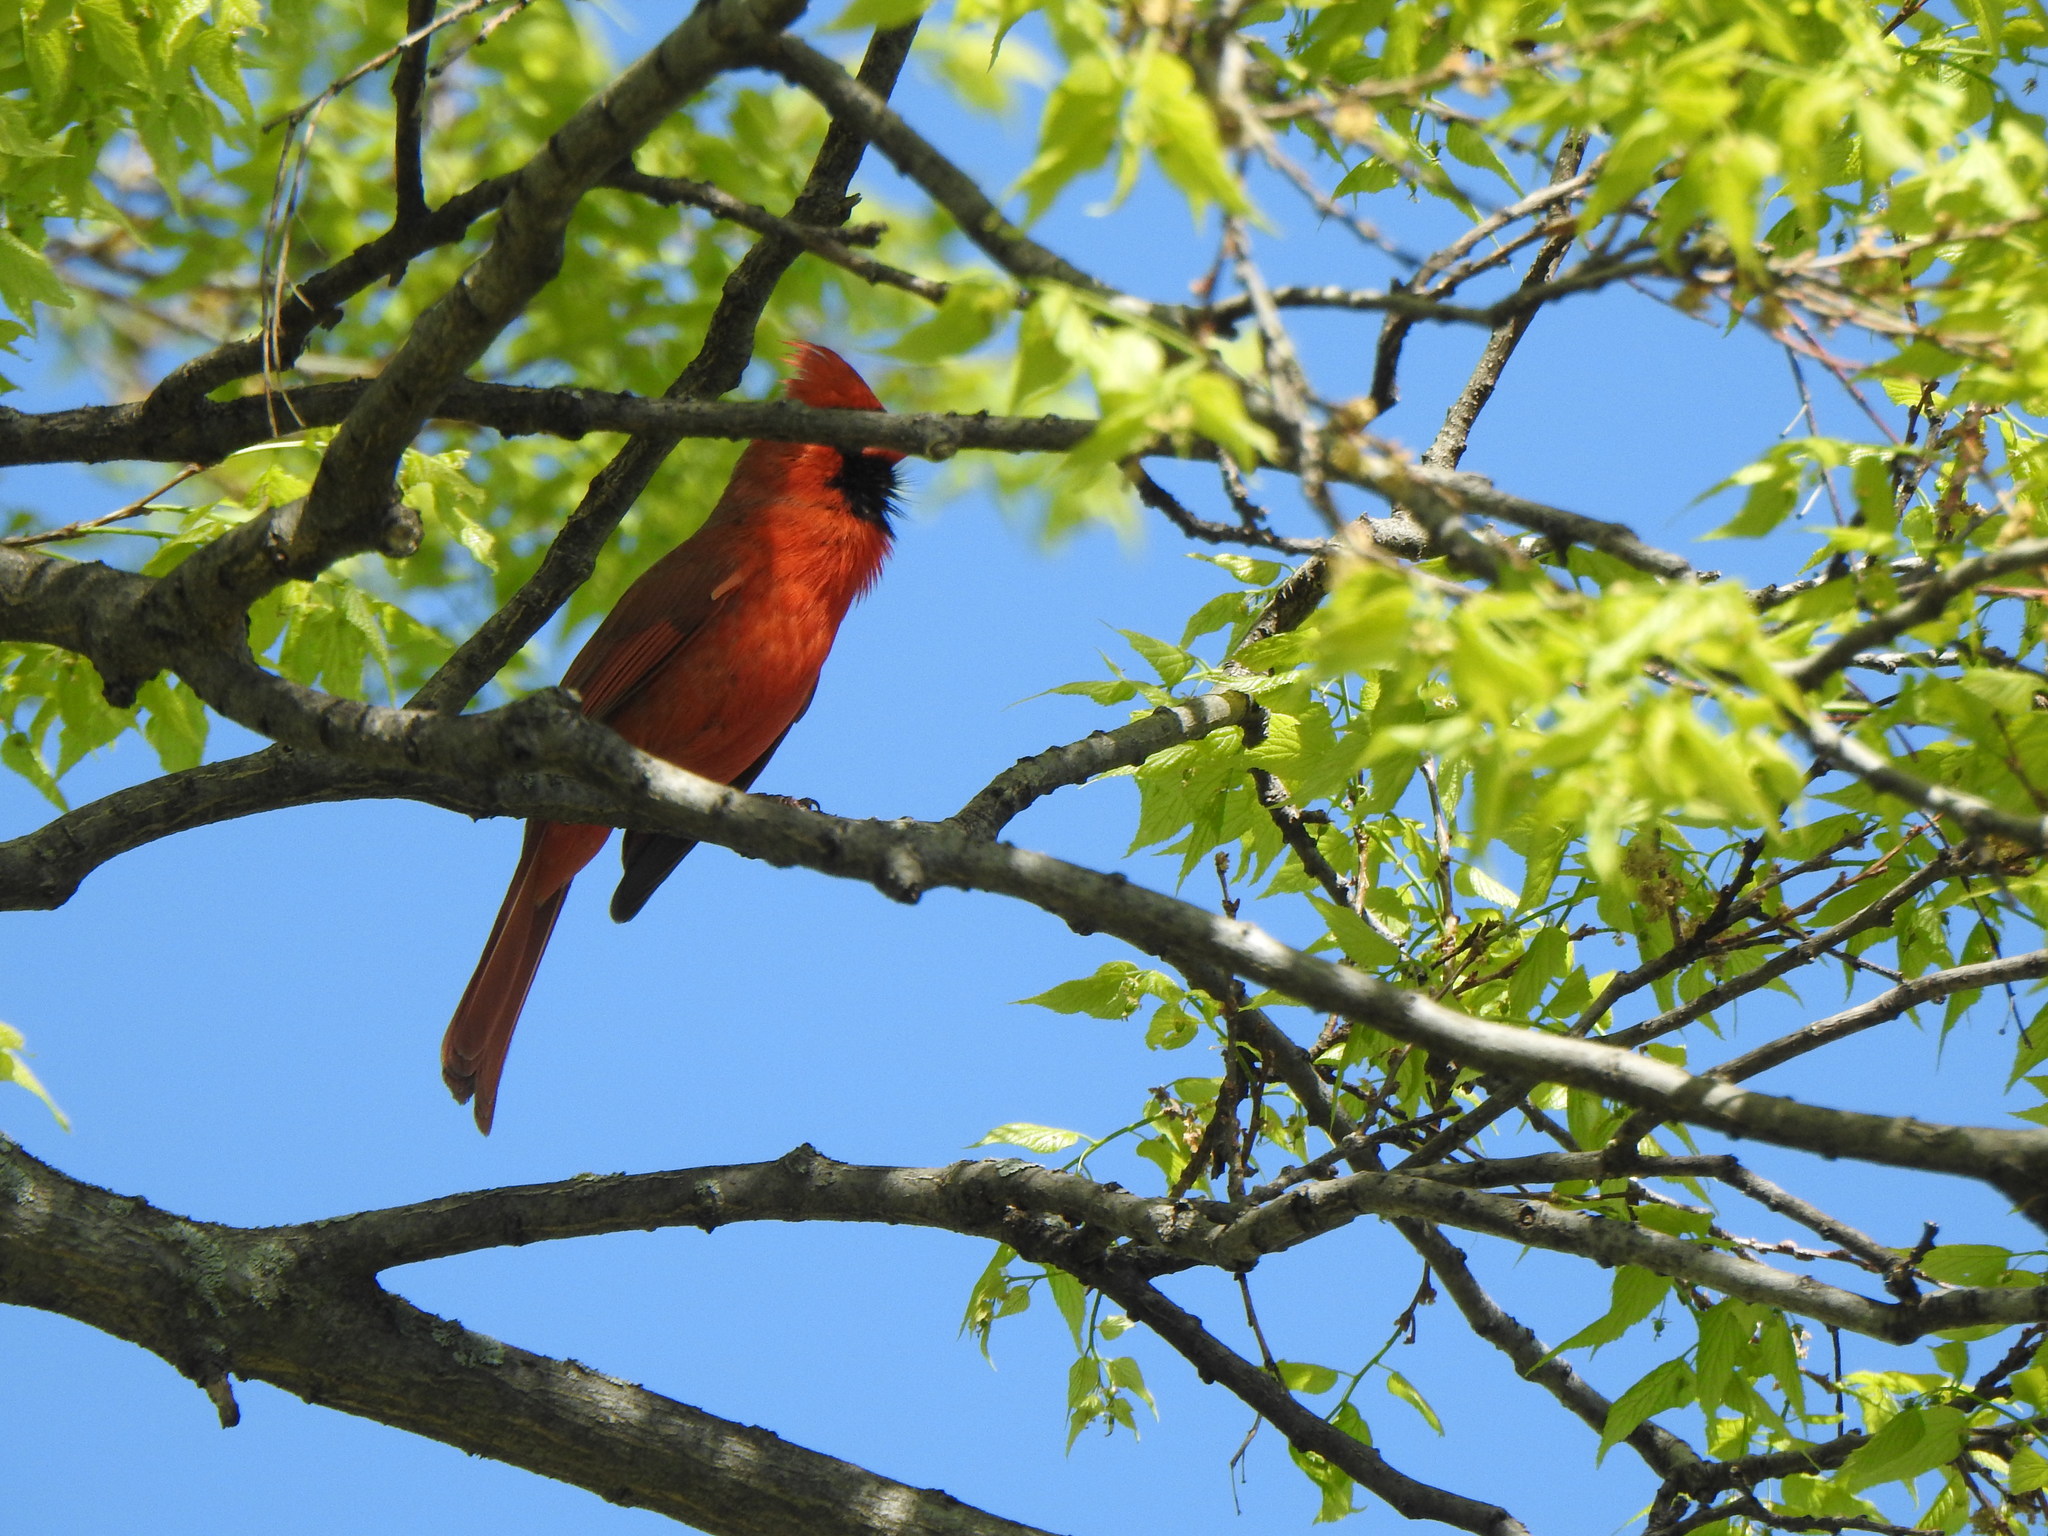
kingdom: Animalia
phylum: Chordata
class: Aves
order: Passeriformes
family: Cardinalidae
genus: Cardinalis
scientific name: Cardinalis cardinalis
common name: Northern cardinal
